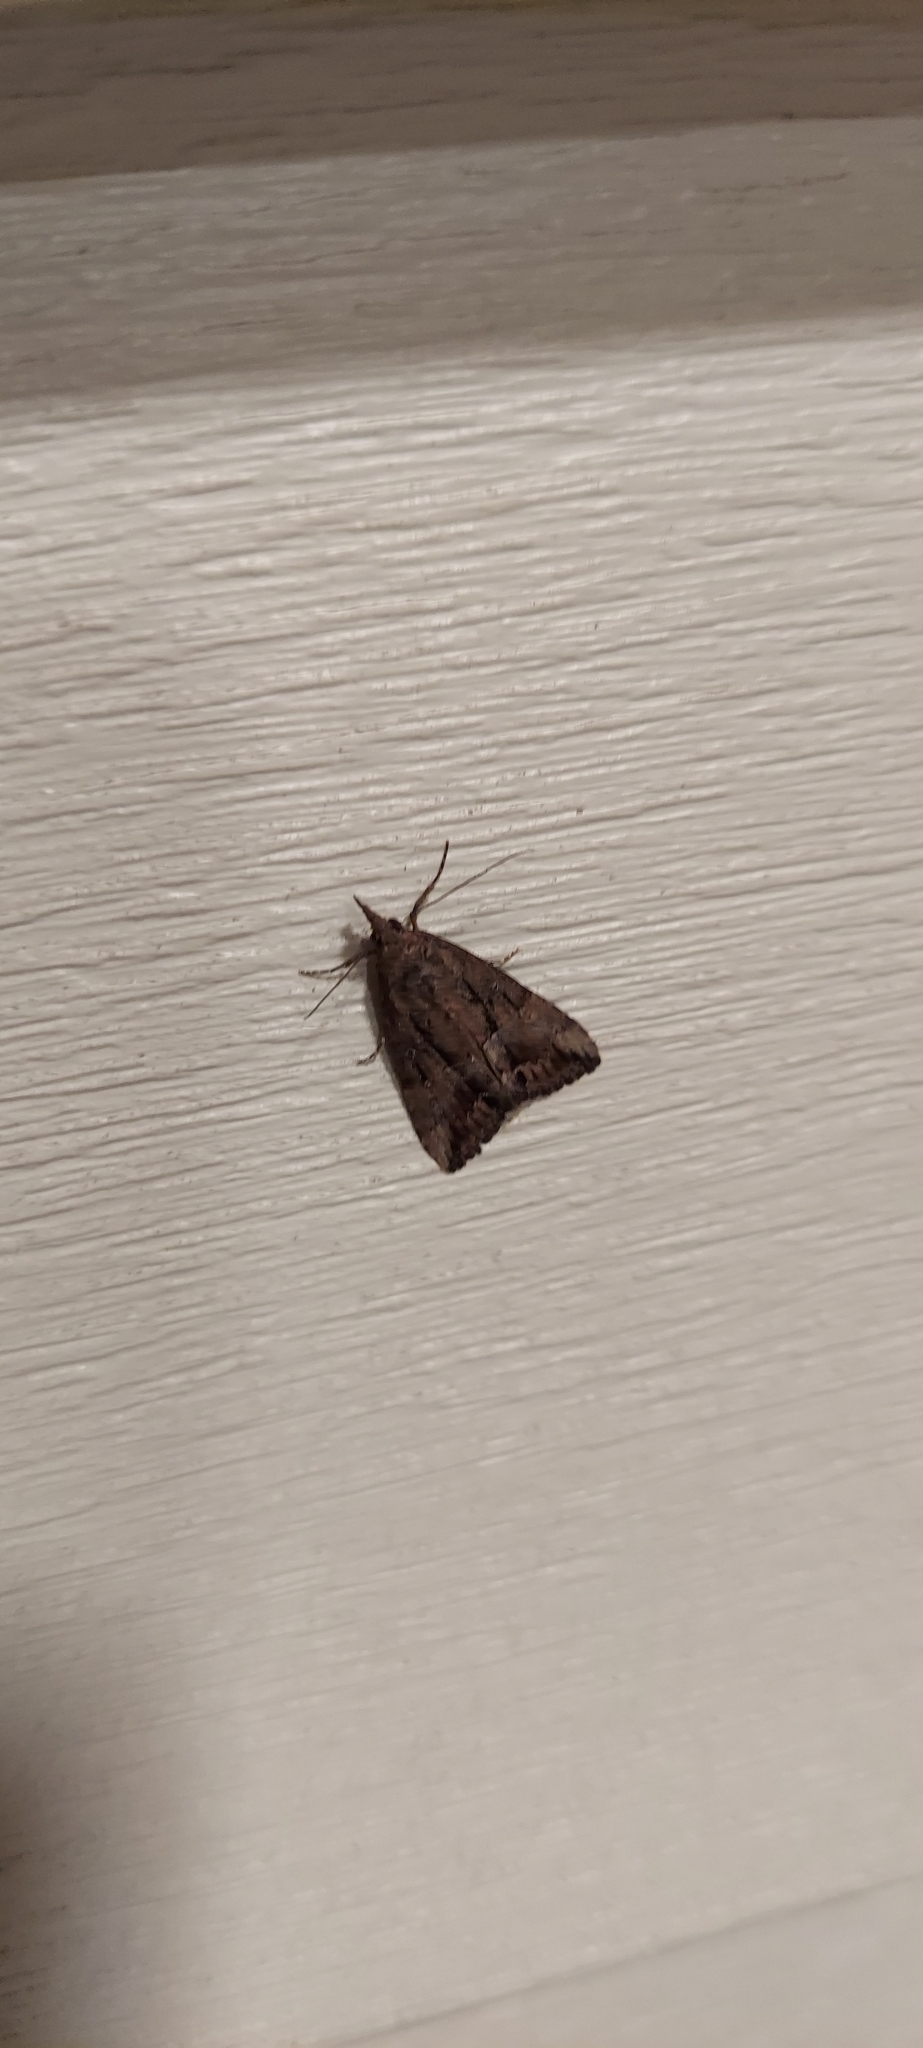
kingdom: Animalia
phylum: Arthropoda
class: Insecta
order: Lepidoptera
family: Erebidae
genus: Hypena
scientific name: Hypena scabra
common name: Green cloverworm
